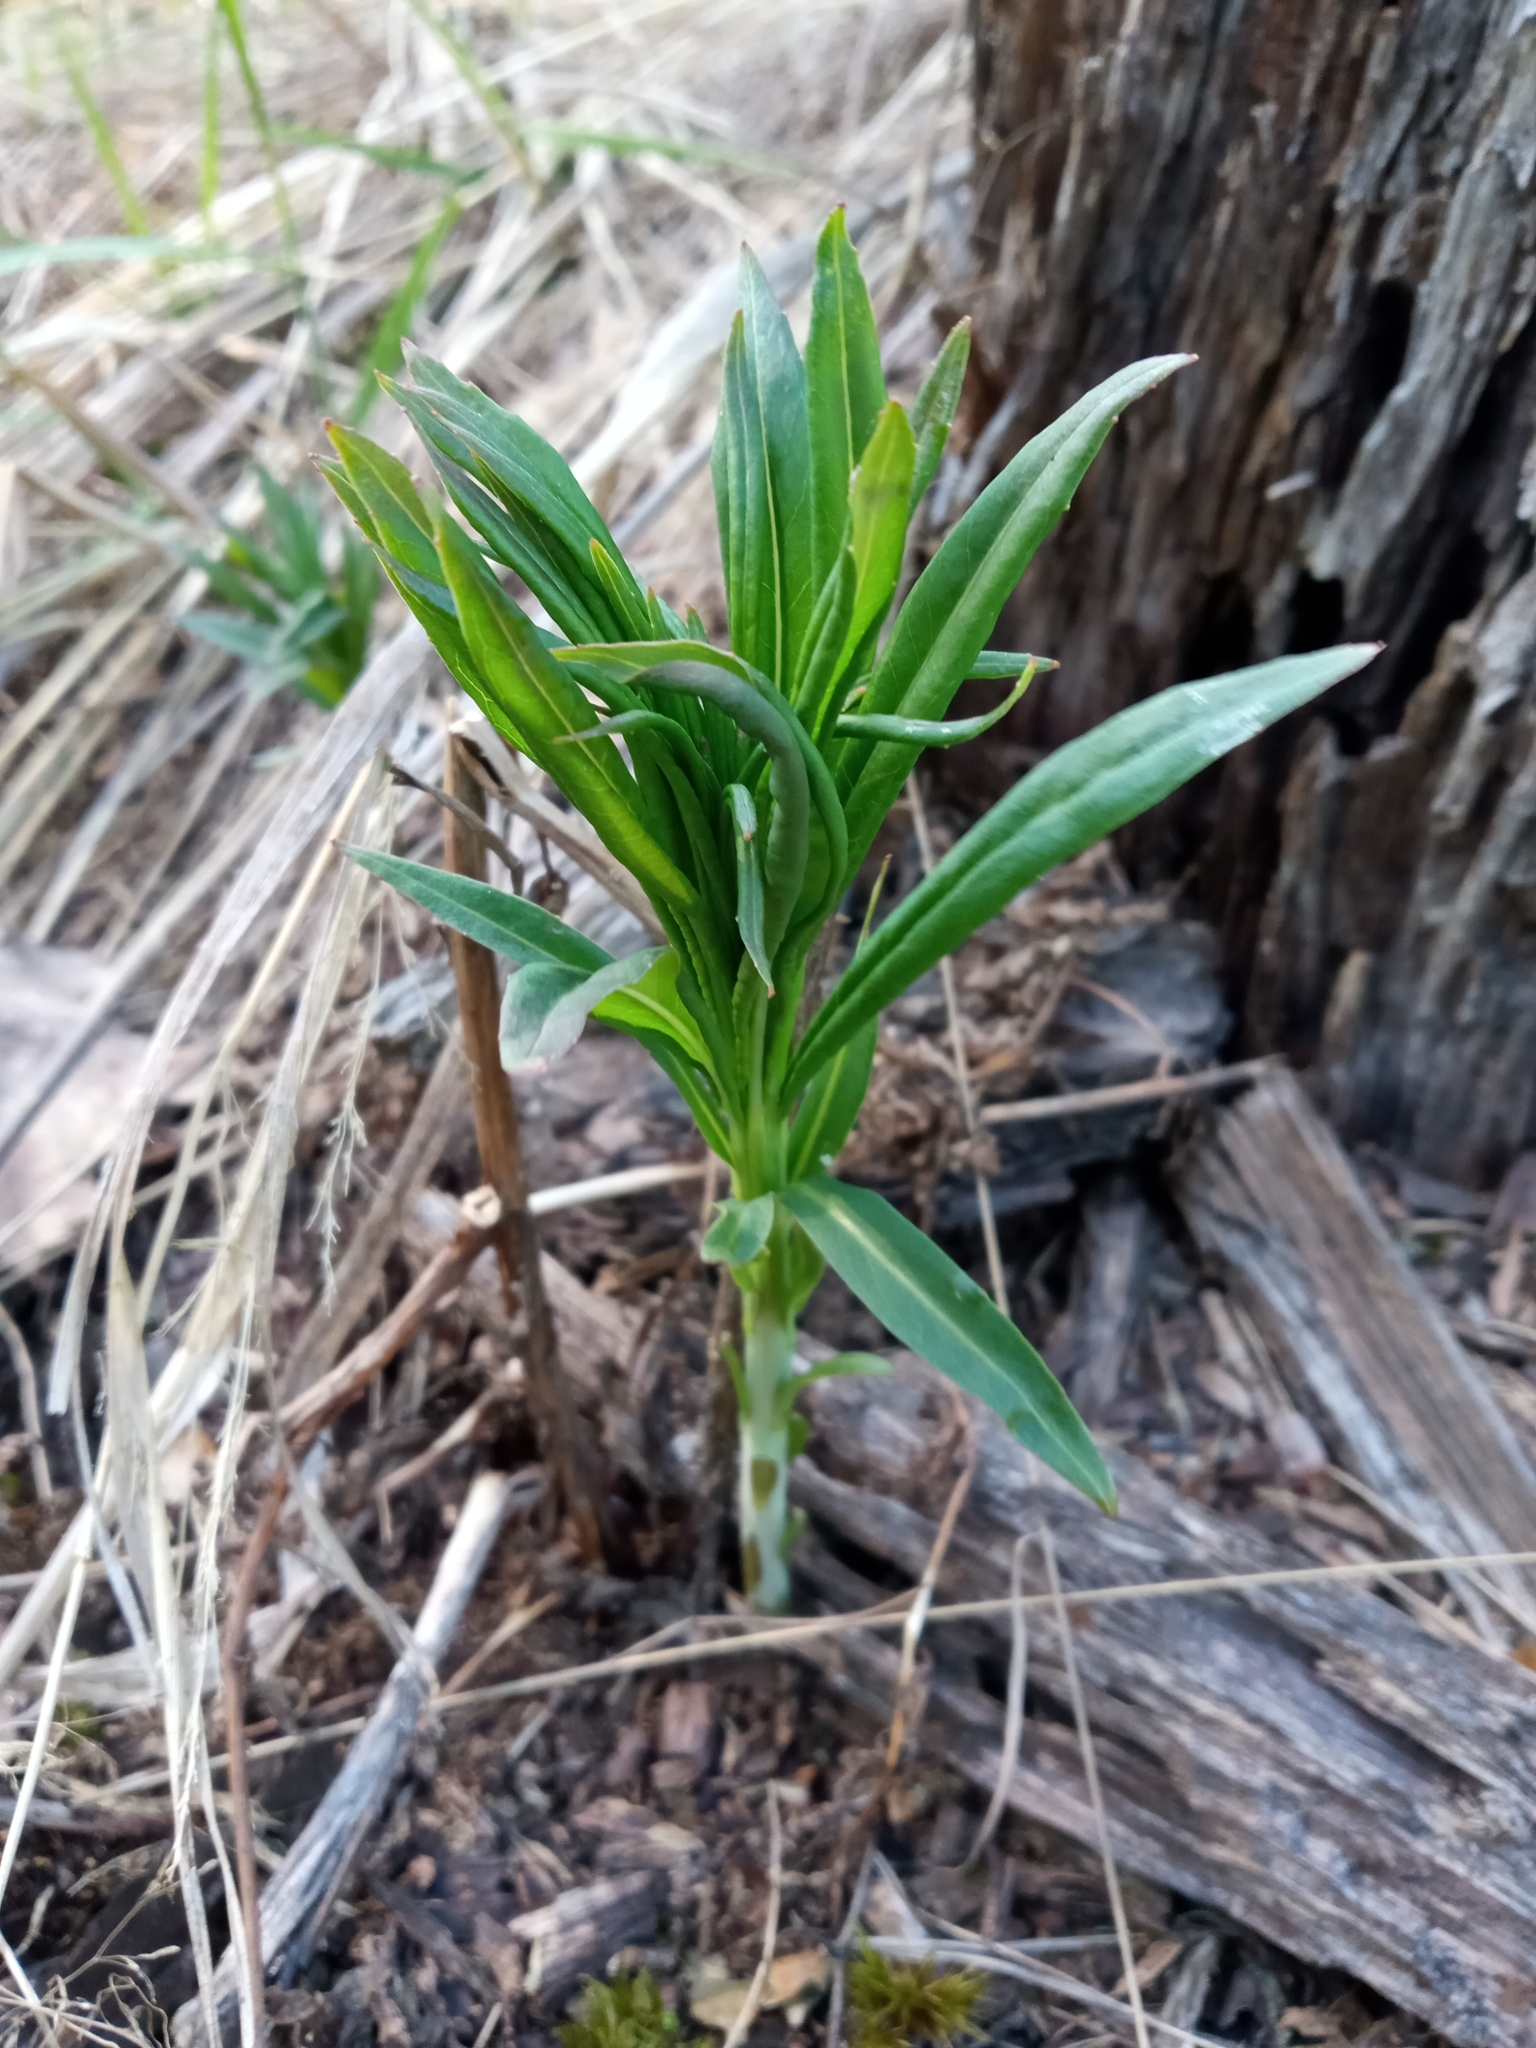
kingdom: Plantae
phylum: Tracheophyta
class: Magnoliopsida
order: Myrtales
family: Onagraceae
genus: Chamaenerion
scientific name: Chamaenerion angustifolium
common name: Fireweed
